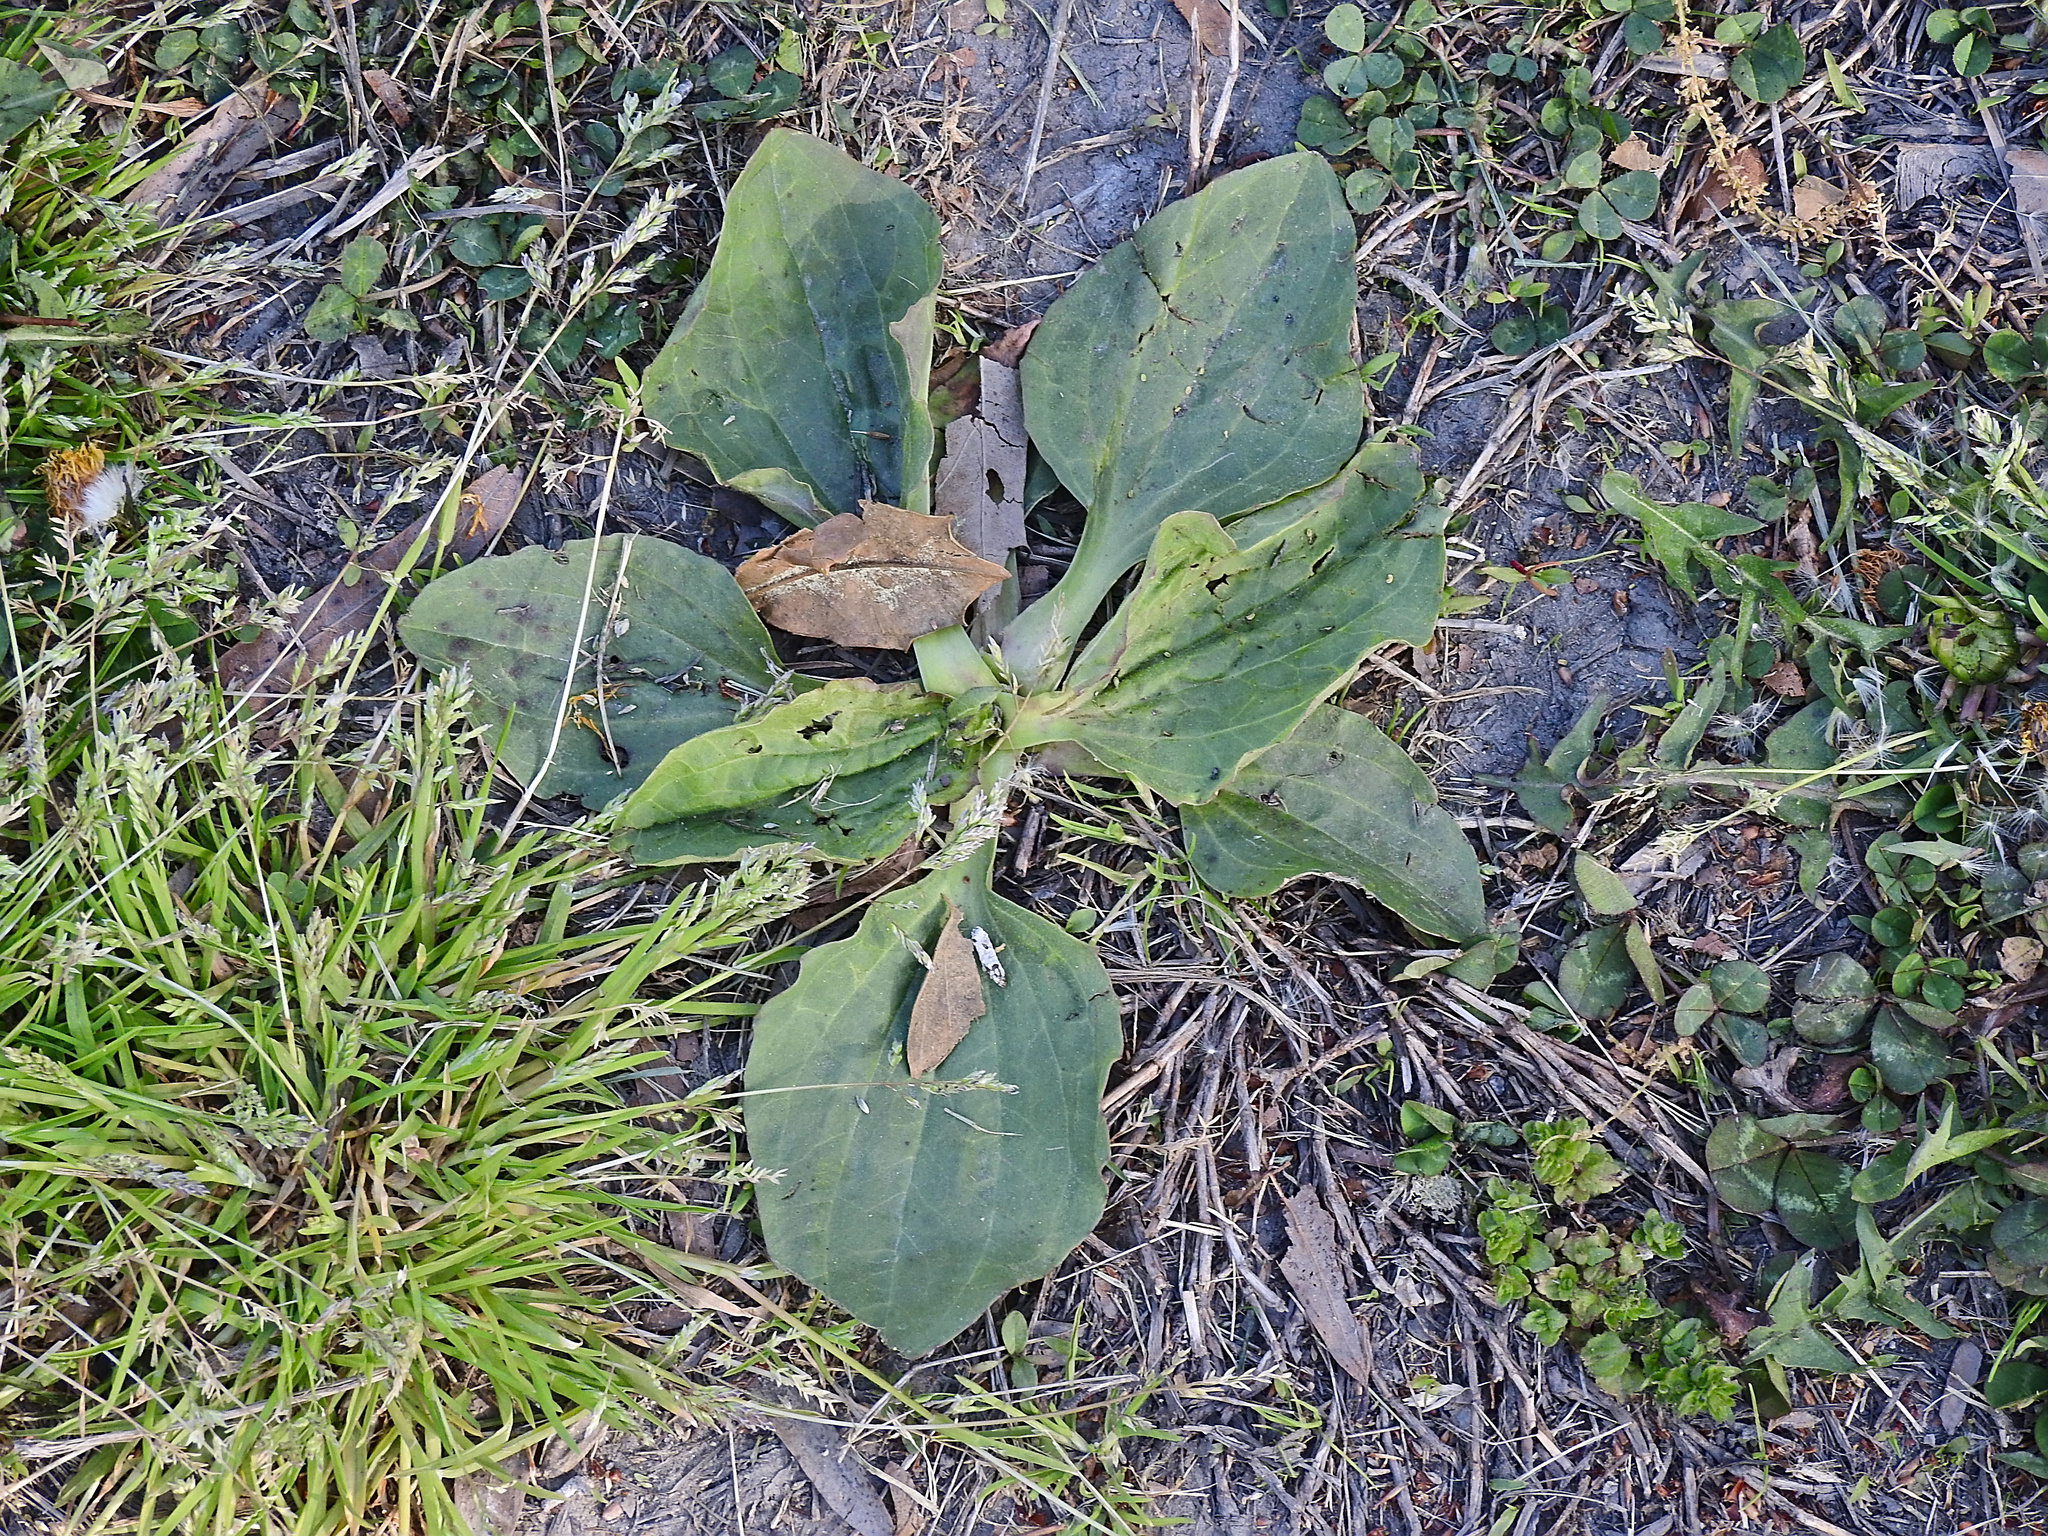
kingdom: Plantae
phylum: Tracheophyta
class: Magnoliopsida
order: Lamiales
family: Plantaginaceae
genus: Plantago
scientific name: Plantago major
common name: Common plantain
